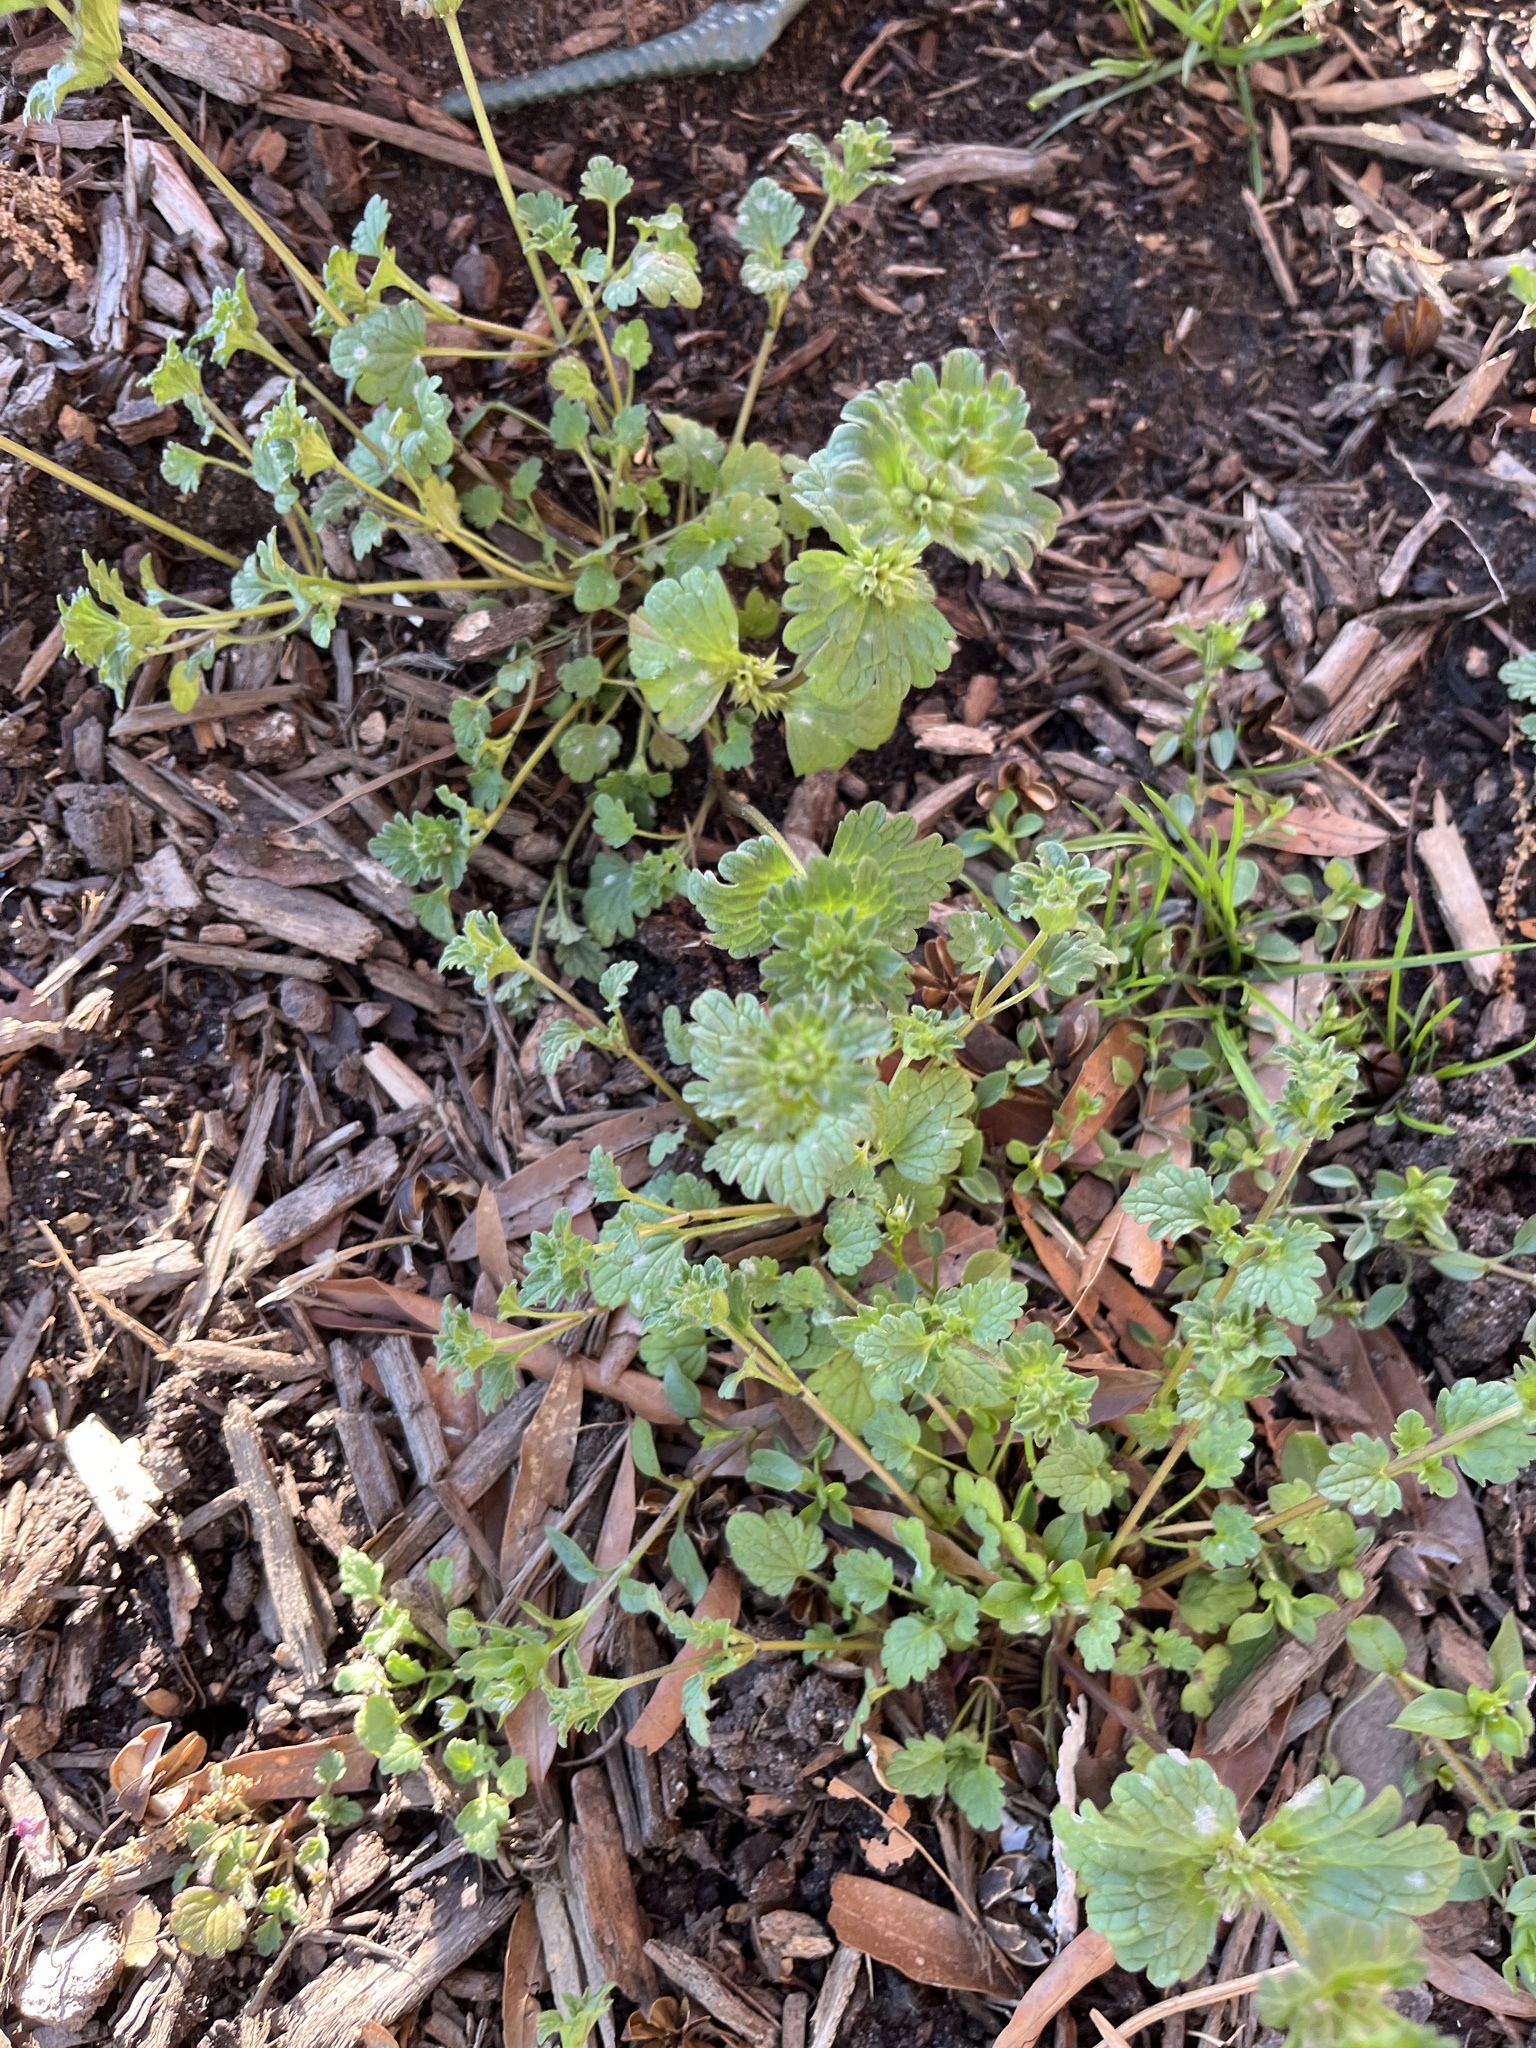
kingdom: Plantae
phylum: Tracheophyta
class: Magnoliopsida
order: Lamiales
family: Lamiaceae
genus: Lamium
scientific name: Lamium amplexicaule
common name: Henbit dead-nettle
